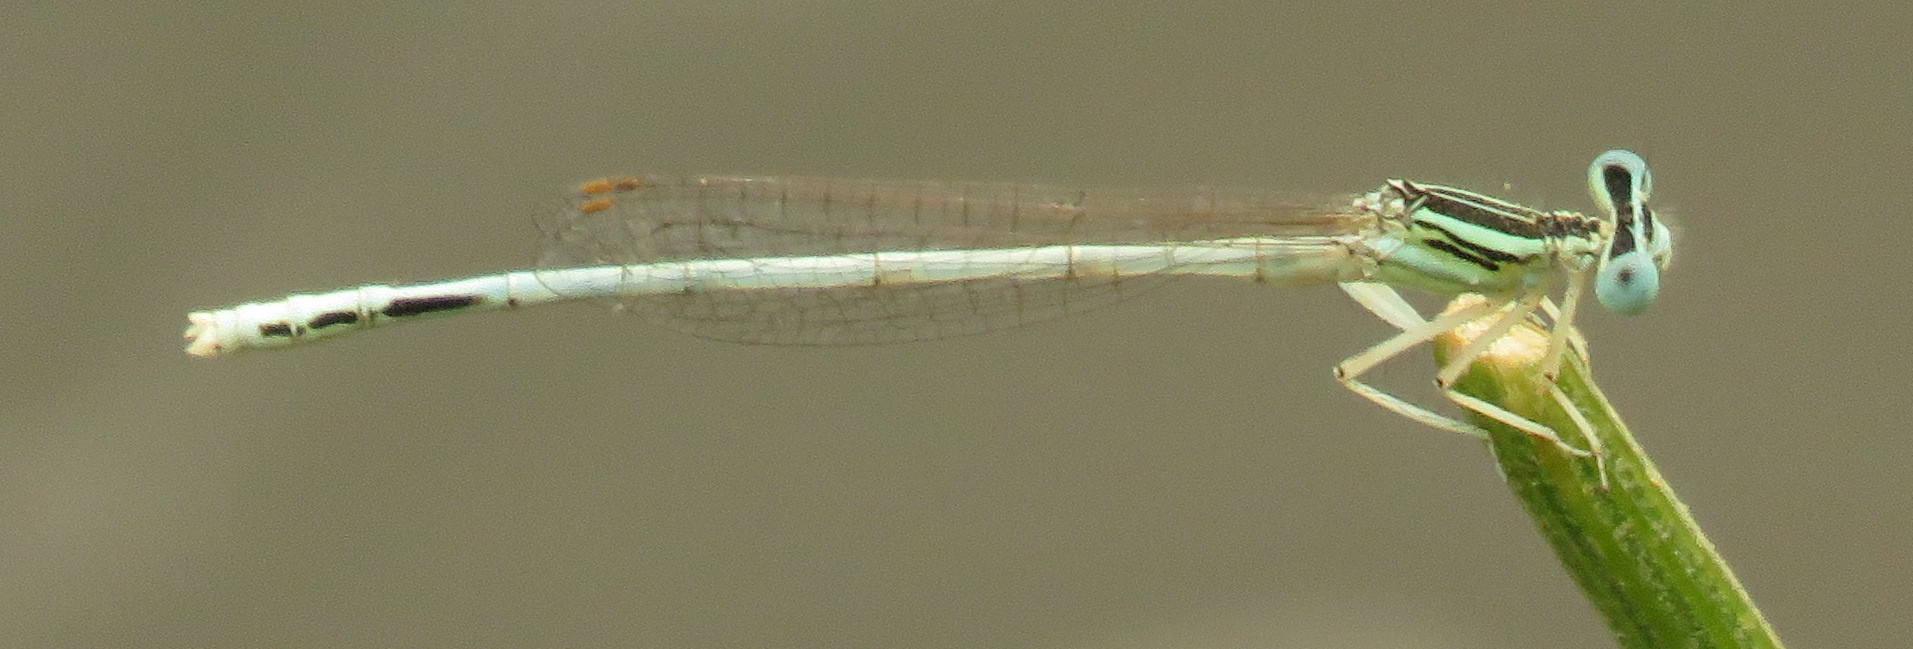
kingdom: Animalia
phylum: Arthropoda
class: Insecta
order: Odonata
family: Platycnemididae
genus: Platycnemis
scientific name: Platycnemis dealbata
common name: Ivory featherleg
